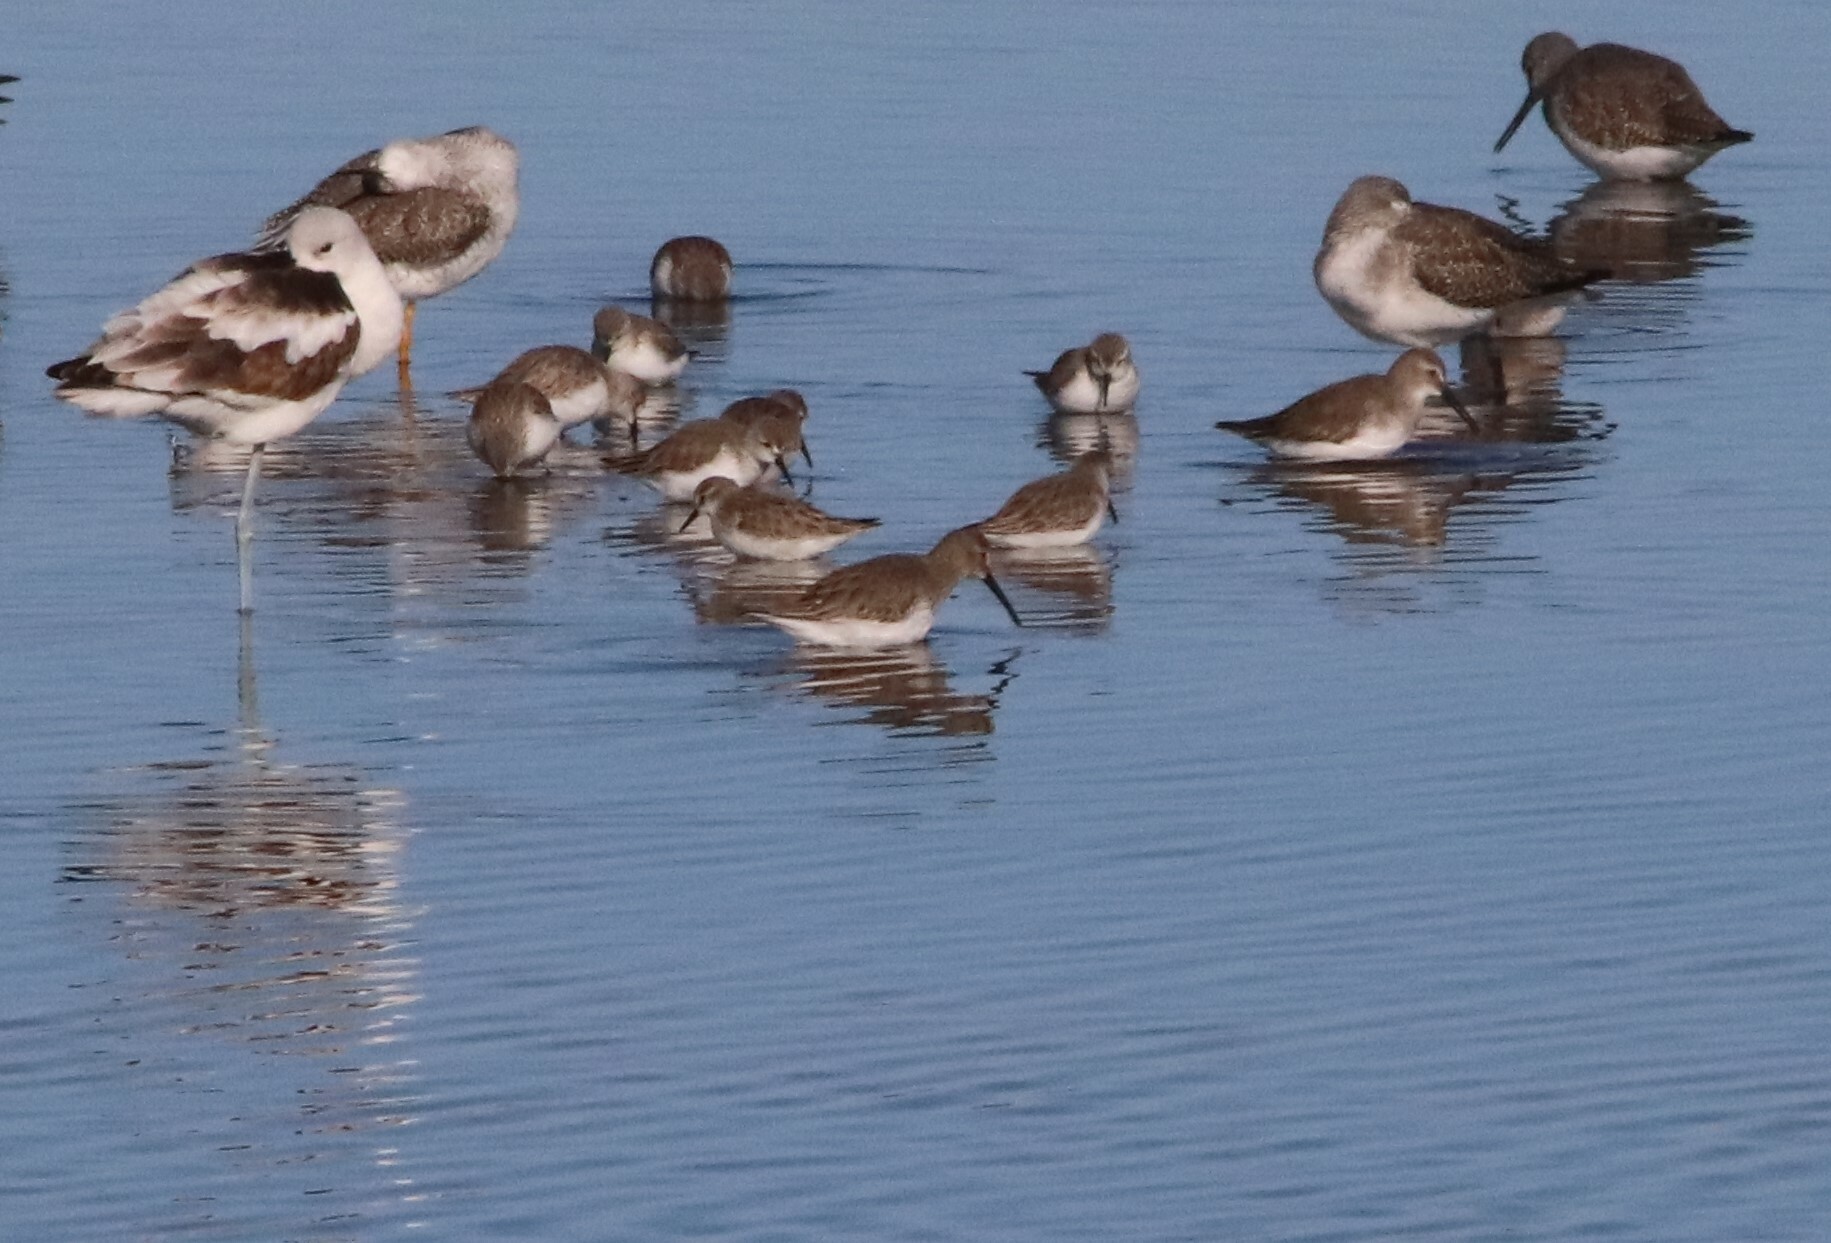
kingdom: Animalia
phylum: Chordata
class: Aves
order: Charadriiformes
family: Scolopacidae
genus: Calidris
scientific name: Calidris alpina
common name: Dunlin
